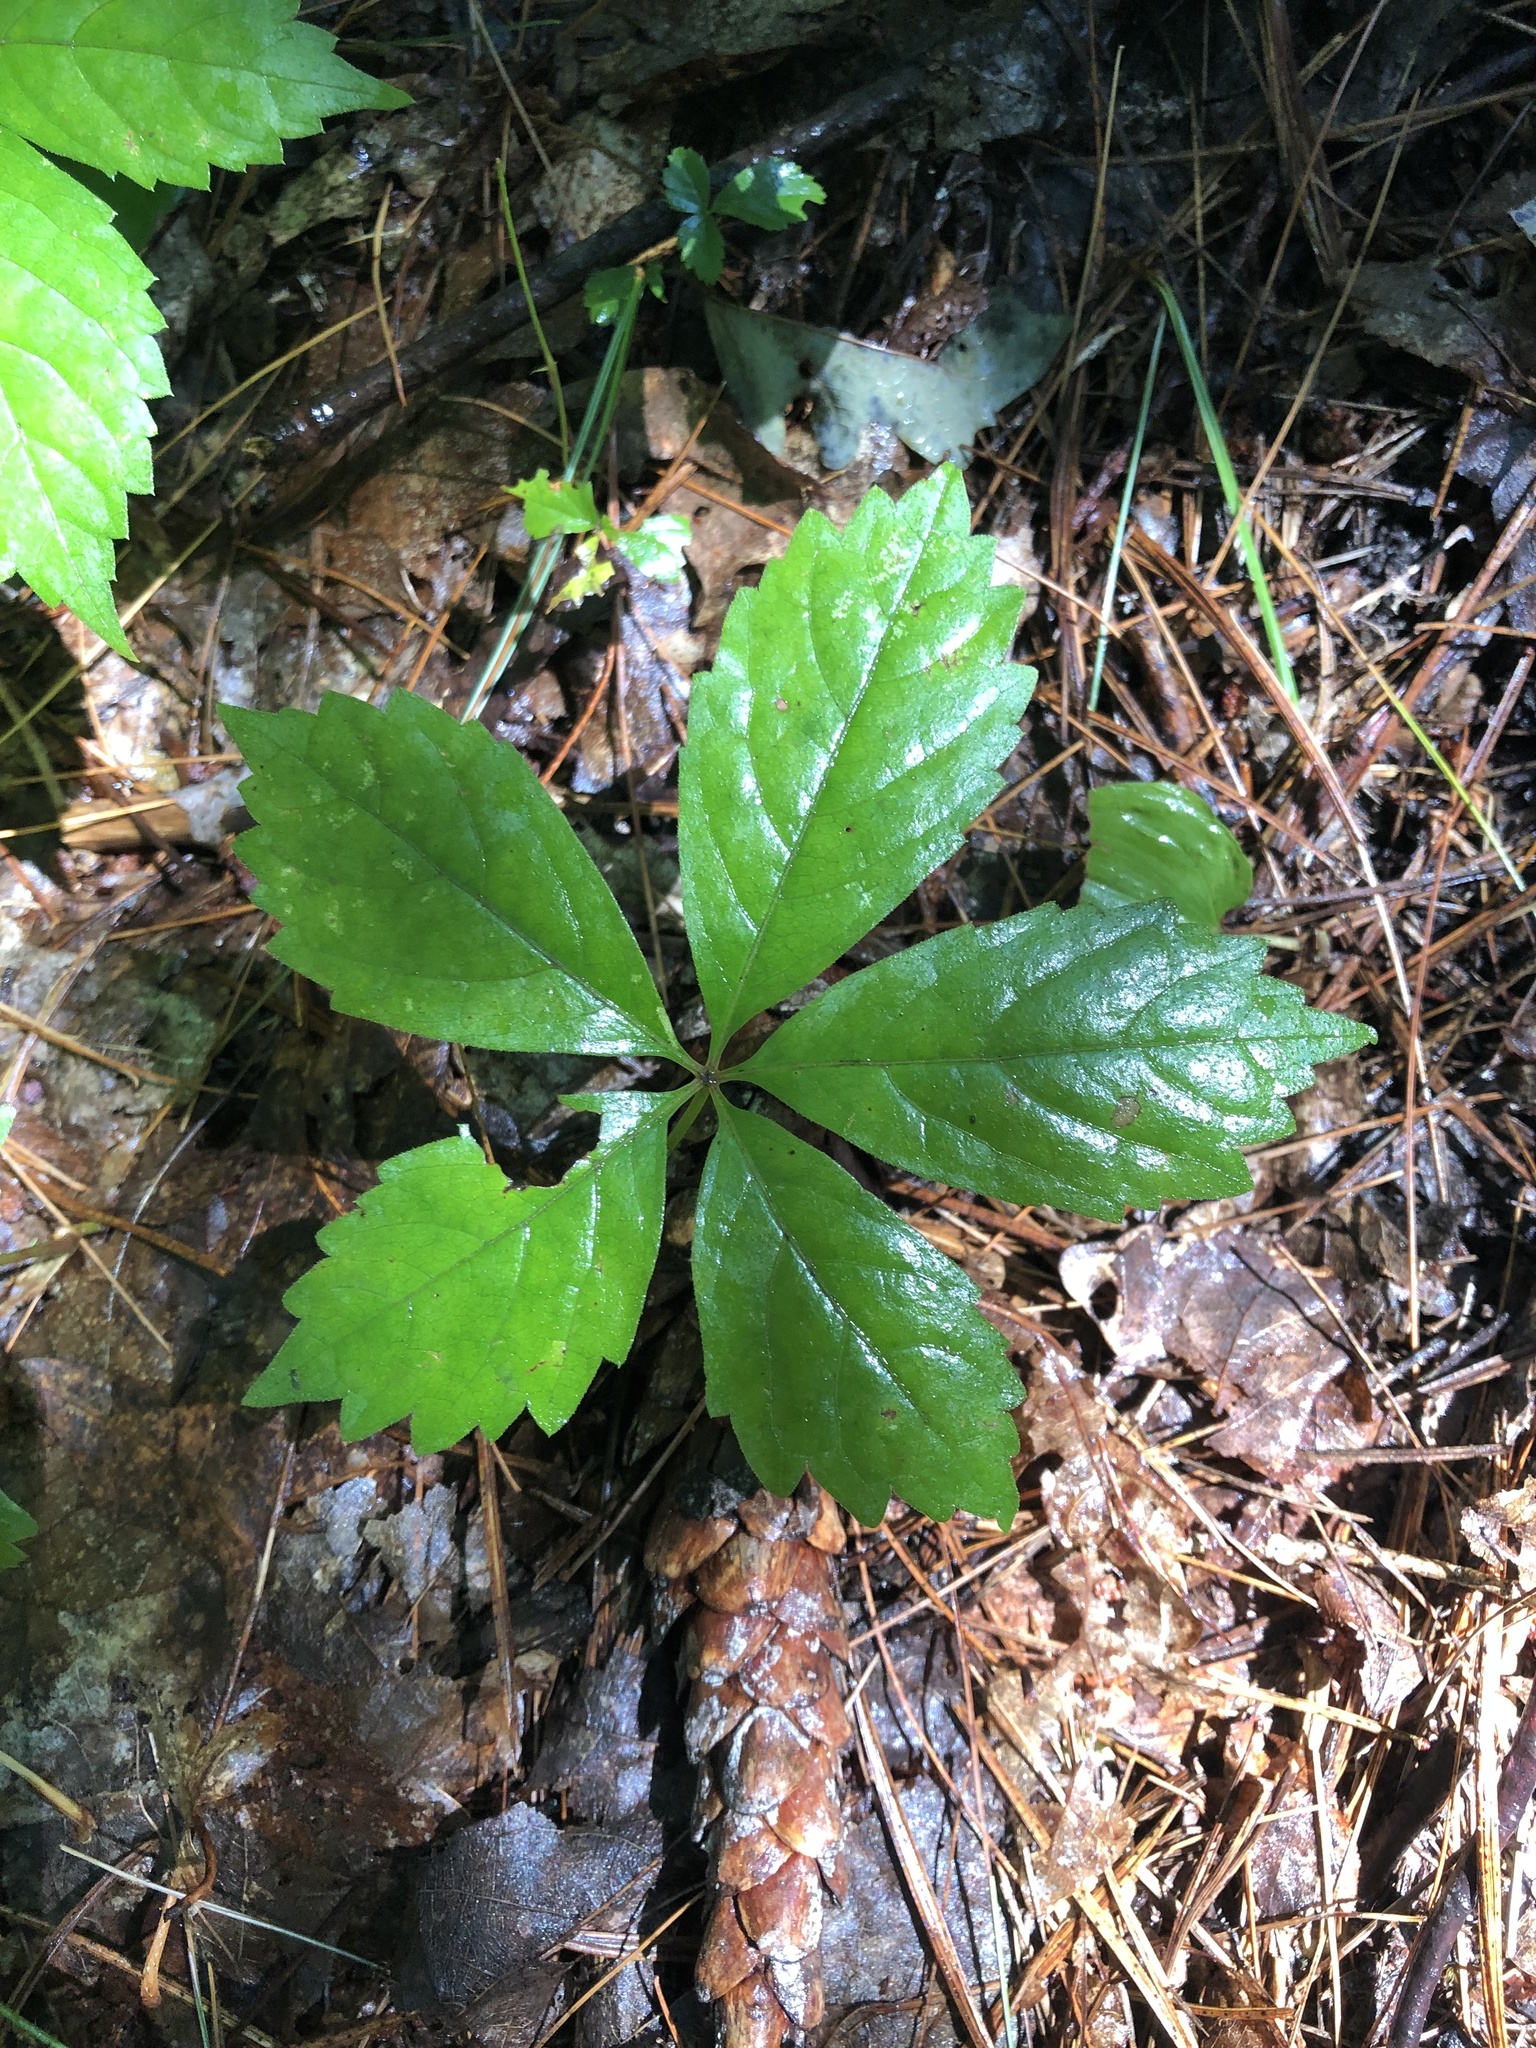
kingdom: Plantae
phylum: Tracheophyta
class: Magnoliopsida
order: Vitales
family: Vitaceae
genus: Parthenocissus
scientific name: Parthenocissus quinquefolia
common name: Virginia-creeper
